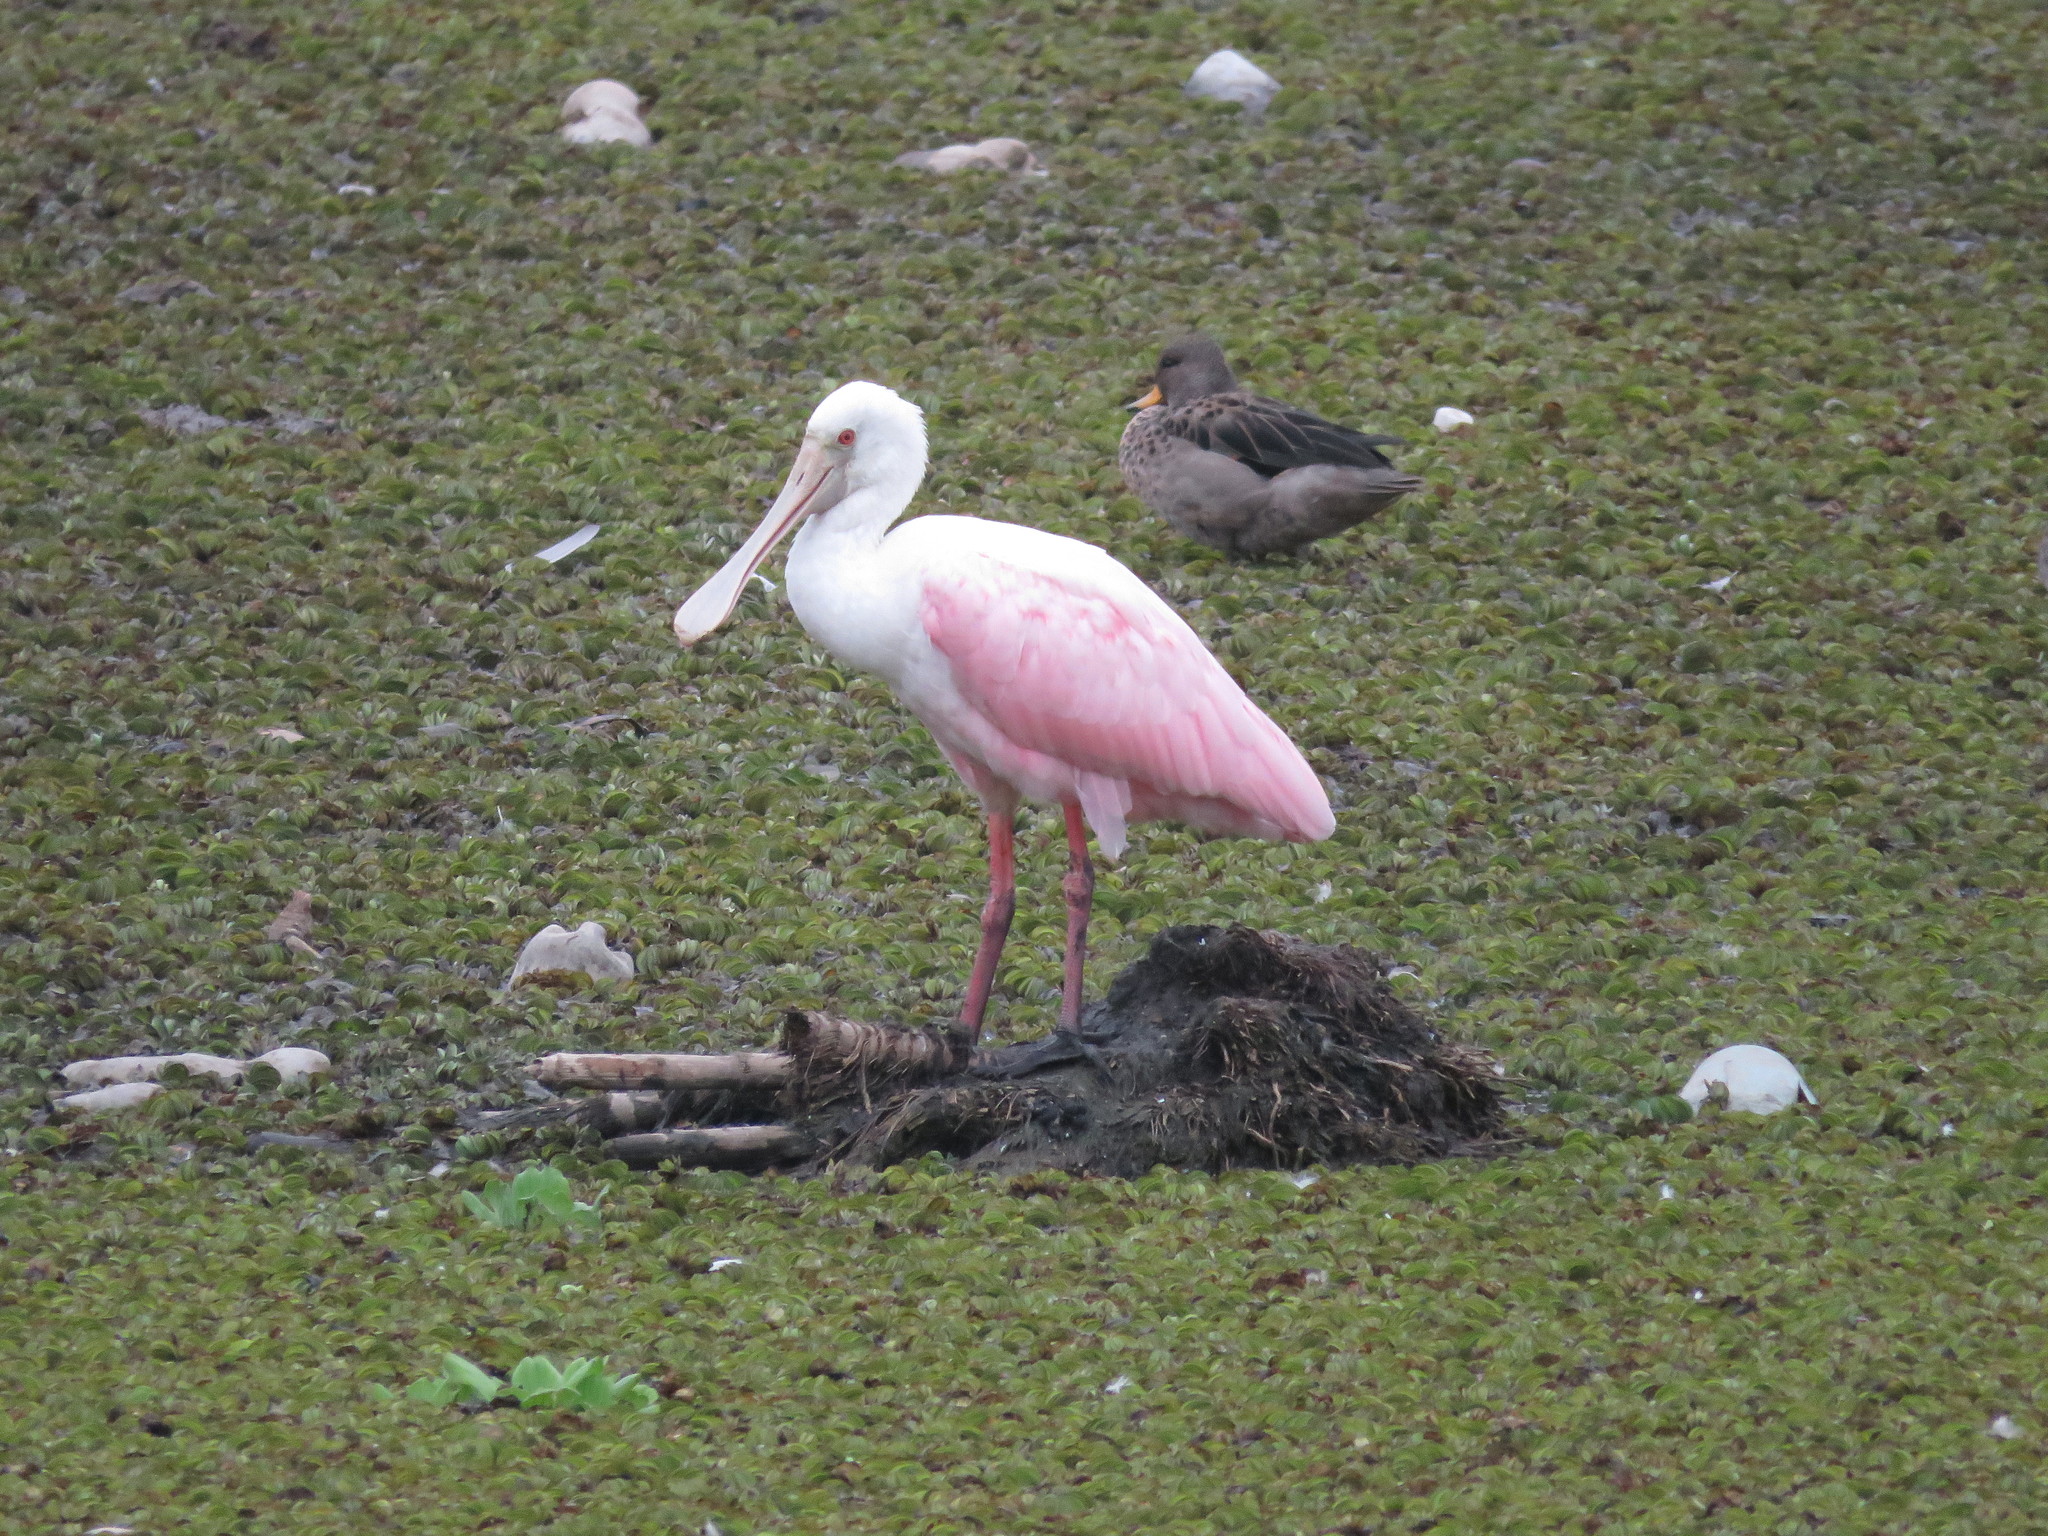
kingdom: Animalia
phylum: Chordata
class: Aves
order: Pelecaniformes
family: Threskiornithidae
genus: Platalea
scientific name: Platalea ajaja
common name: Roseate spoonbill
